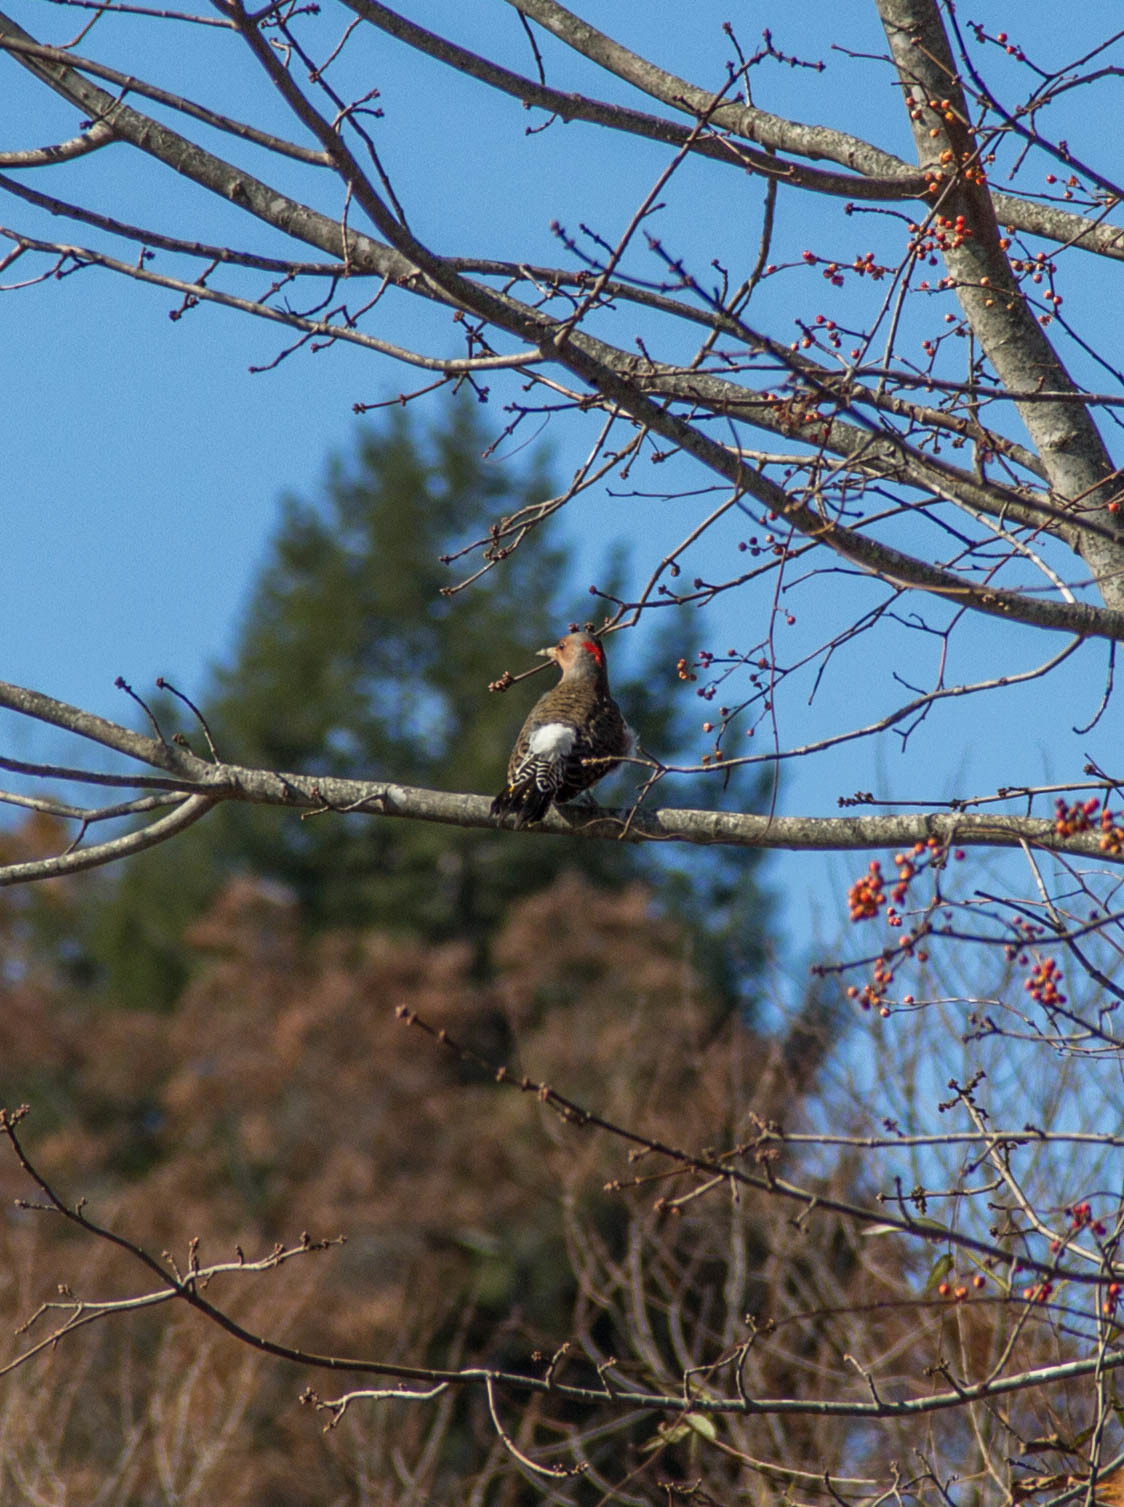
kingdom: Animalia
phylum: Chordata
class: Aves
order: Piciformes
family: Picidae
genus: Colaptes
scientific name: Colaptes auratus
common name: Northern flicker
